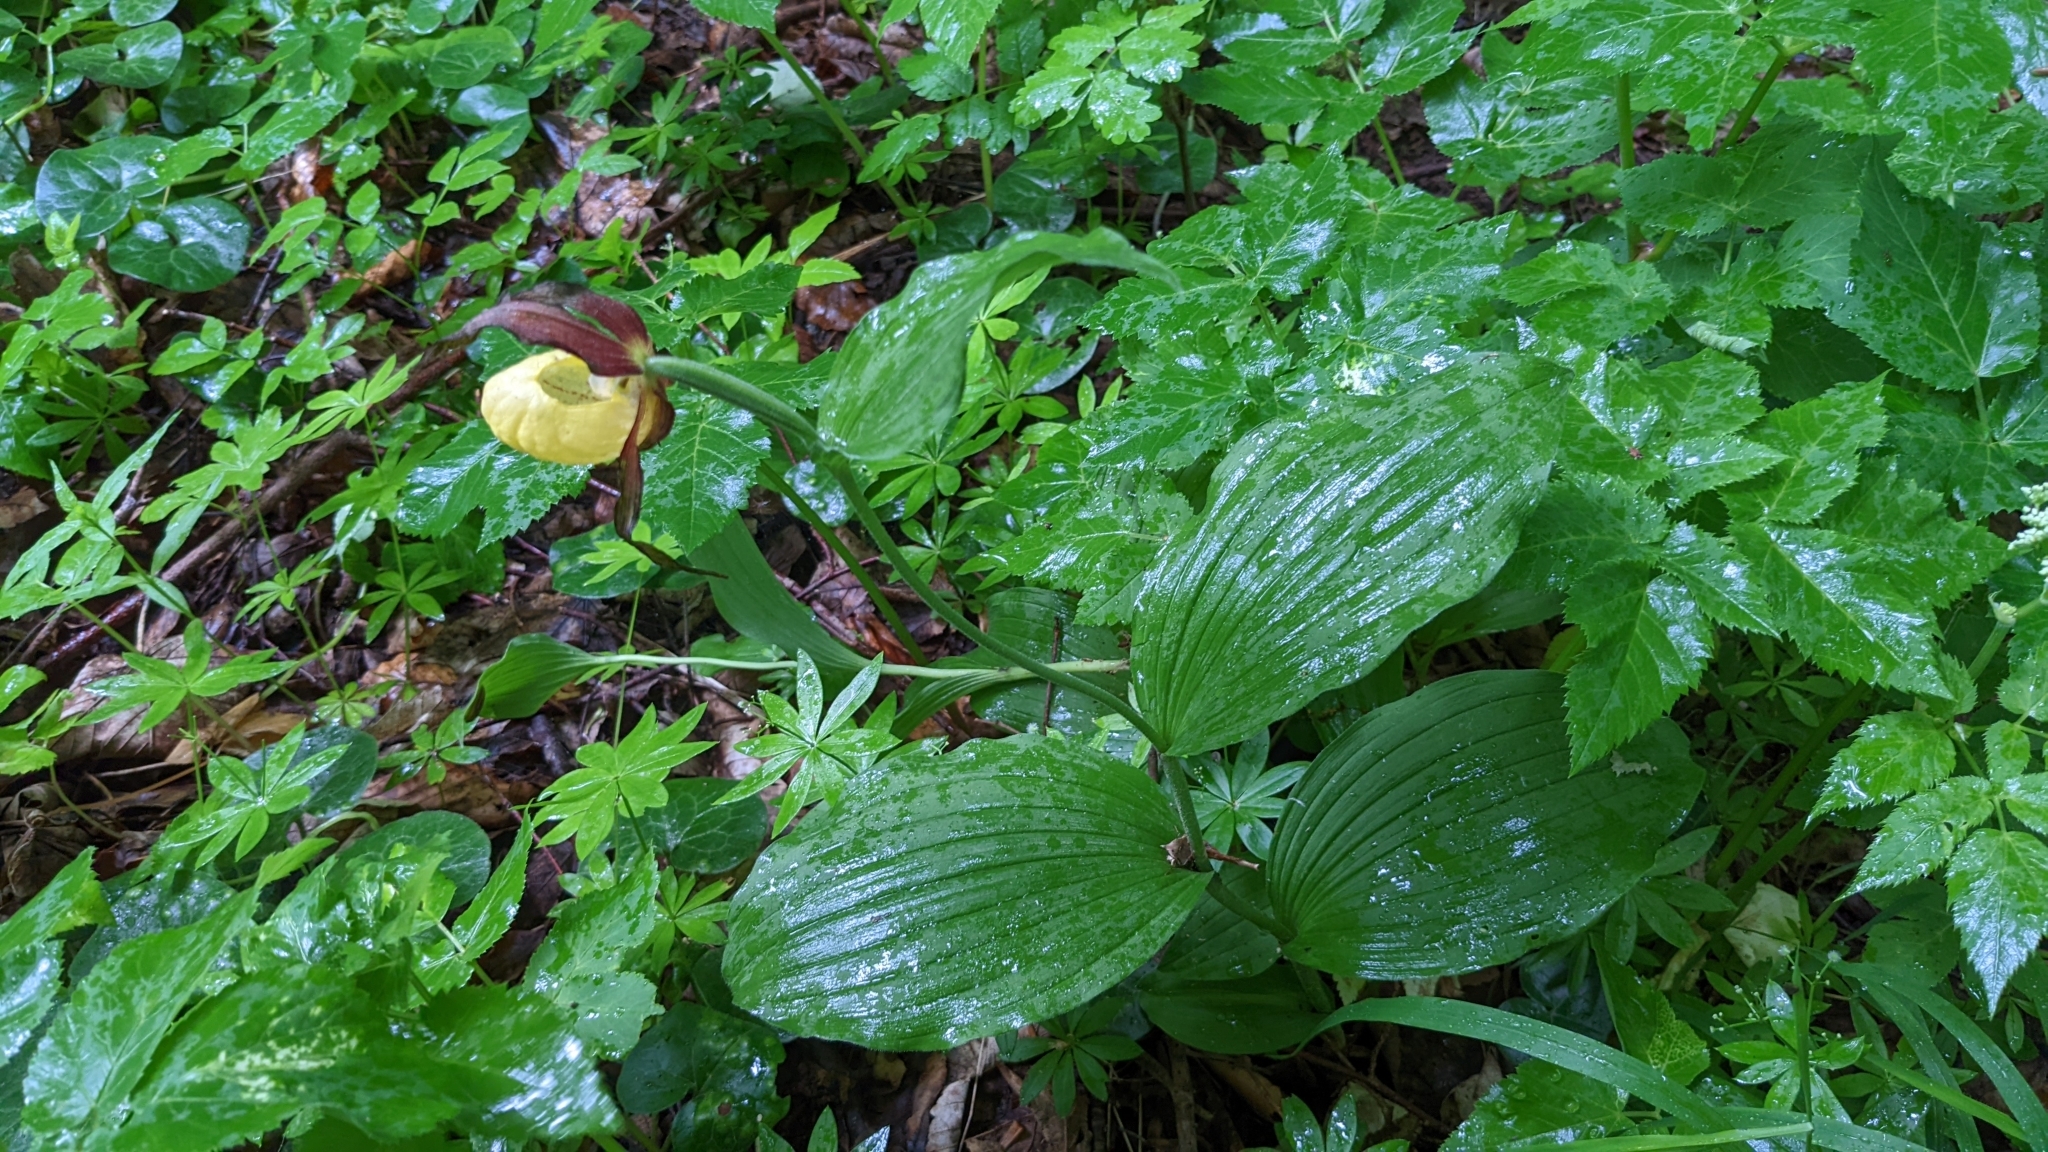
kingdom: Plantae
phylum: Tracheophyta
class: Liliopsida
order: Asparagales
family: Orchidaceae
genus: Cypripedium
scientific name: Cypripedium calceolus
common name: Lady's-slipper
